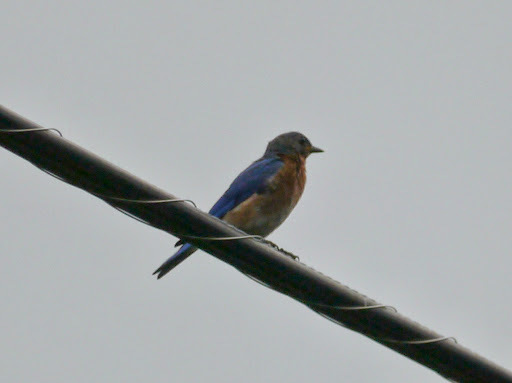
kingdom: Animalia
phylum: Chordata
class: Aves
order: Passeriformes
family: Turdidae
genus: Sialia
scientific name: Sialia sialis
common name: Eastern bluebird
